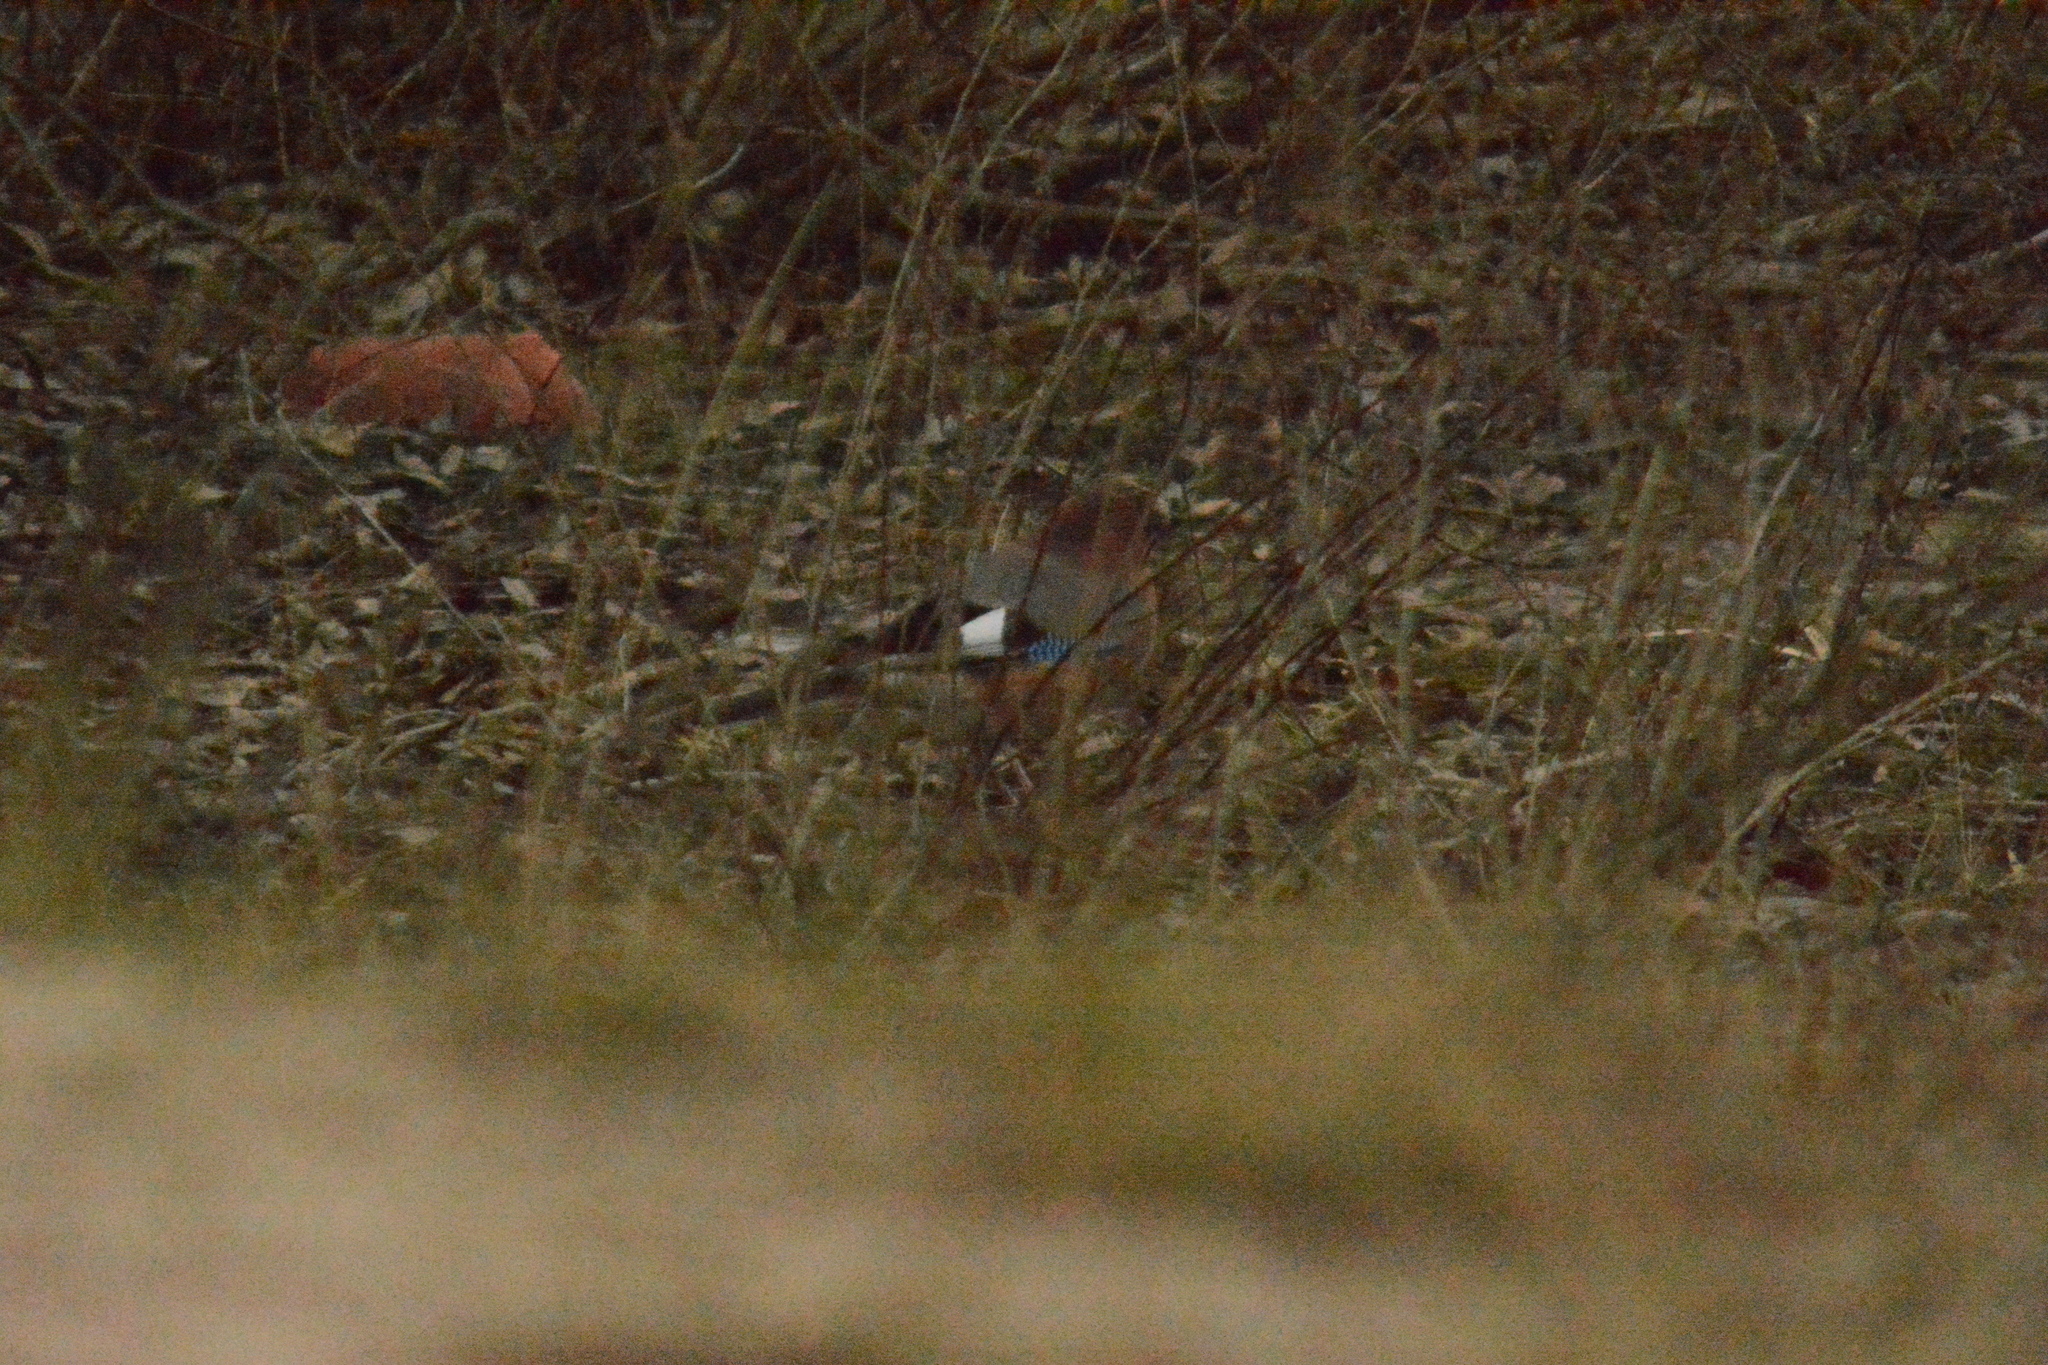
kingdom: Animalia
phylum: Chordata
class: Aves
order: Passeriformes
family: Corvidae
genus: Garrulus
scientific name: Garrulus glandarius
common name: Eurasian jay
